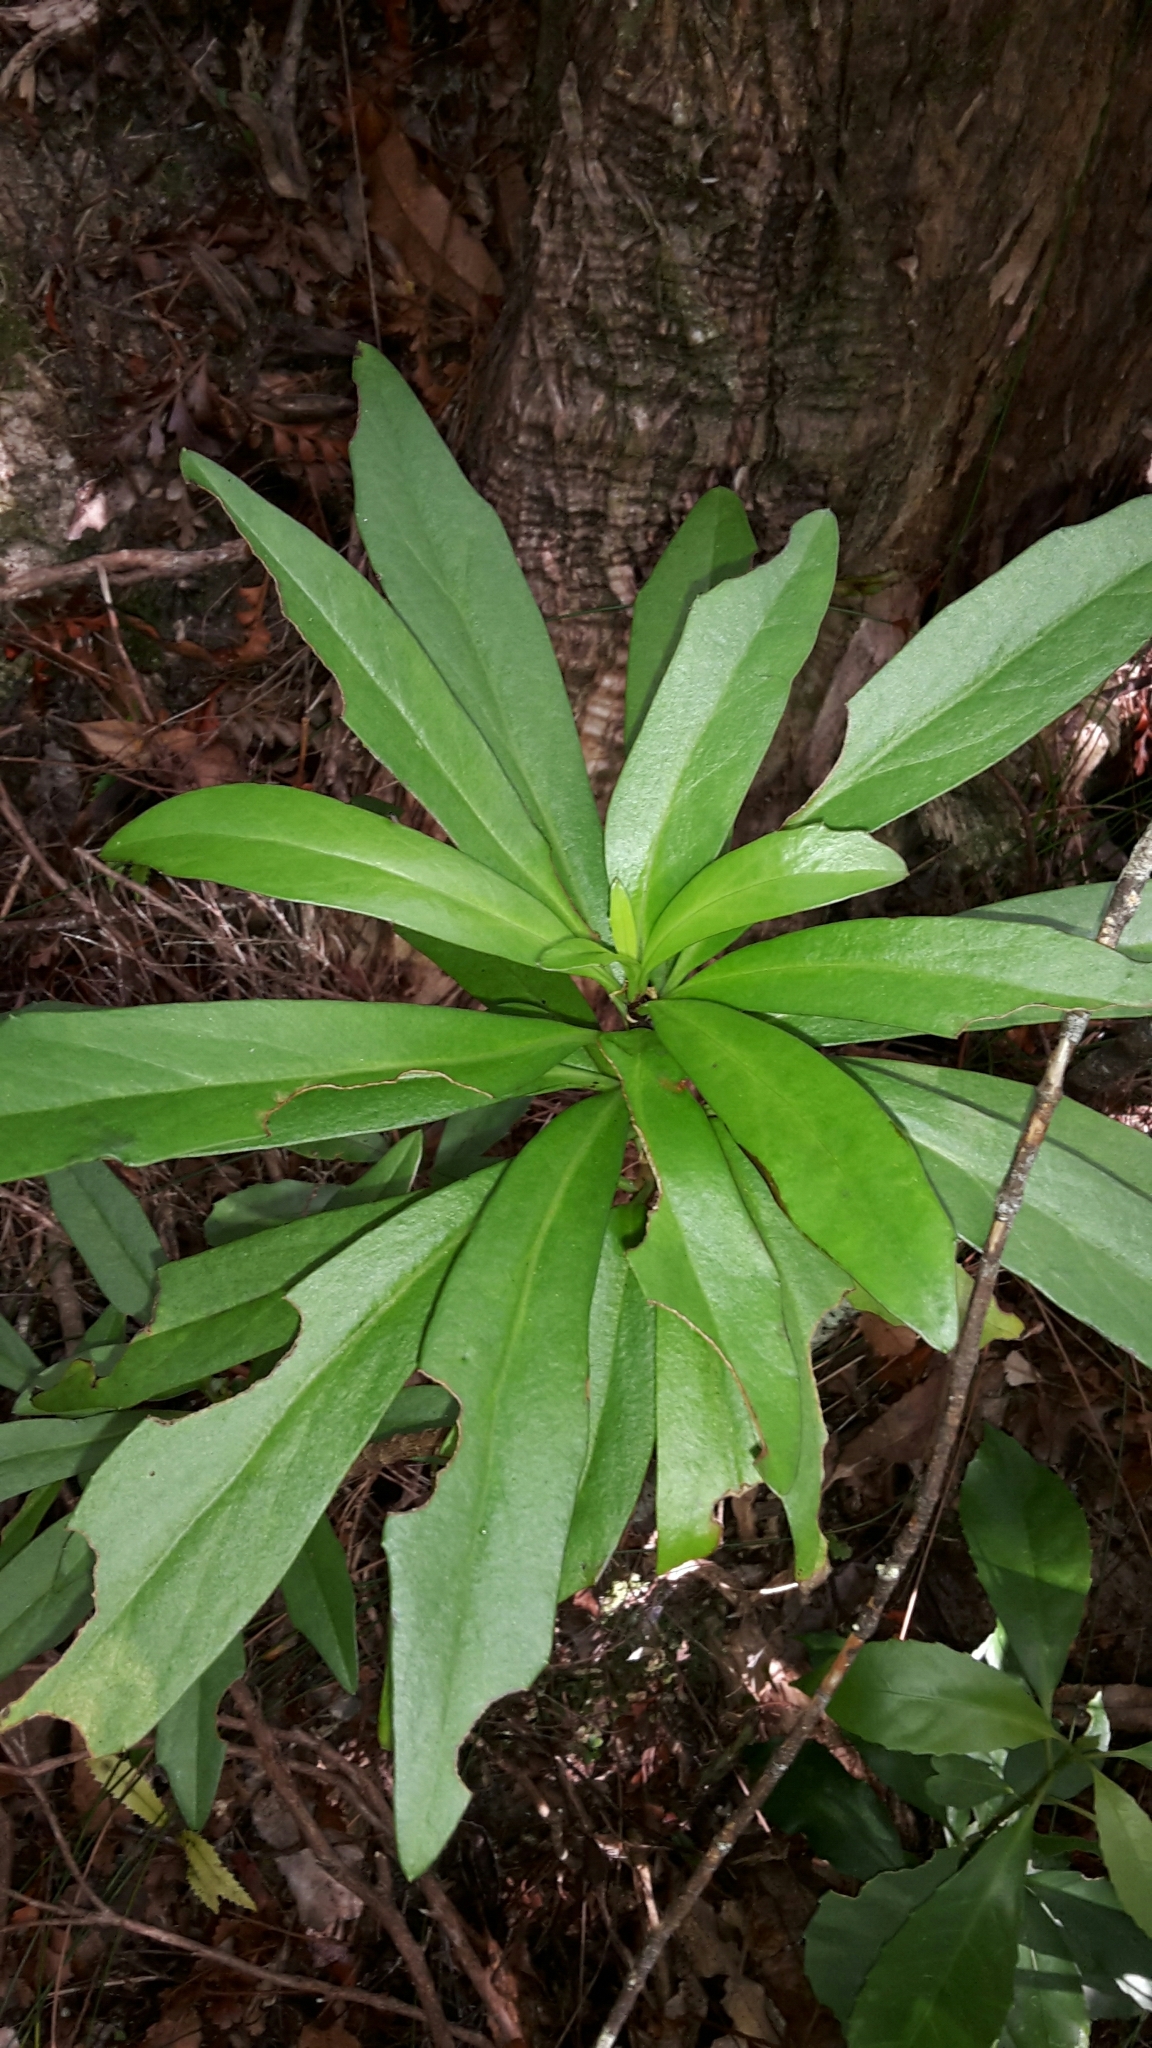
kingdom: Plantae
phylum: Tracheophyta
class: Magnoliopsida
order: Asterales
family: Asteraceae
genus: Brachyglottis
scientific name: Brachyglottis kirkii
